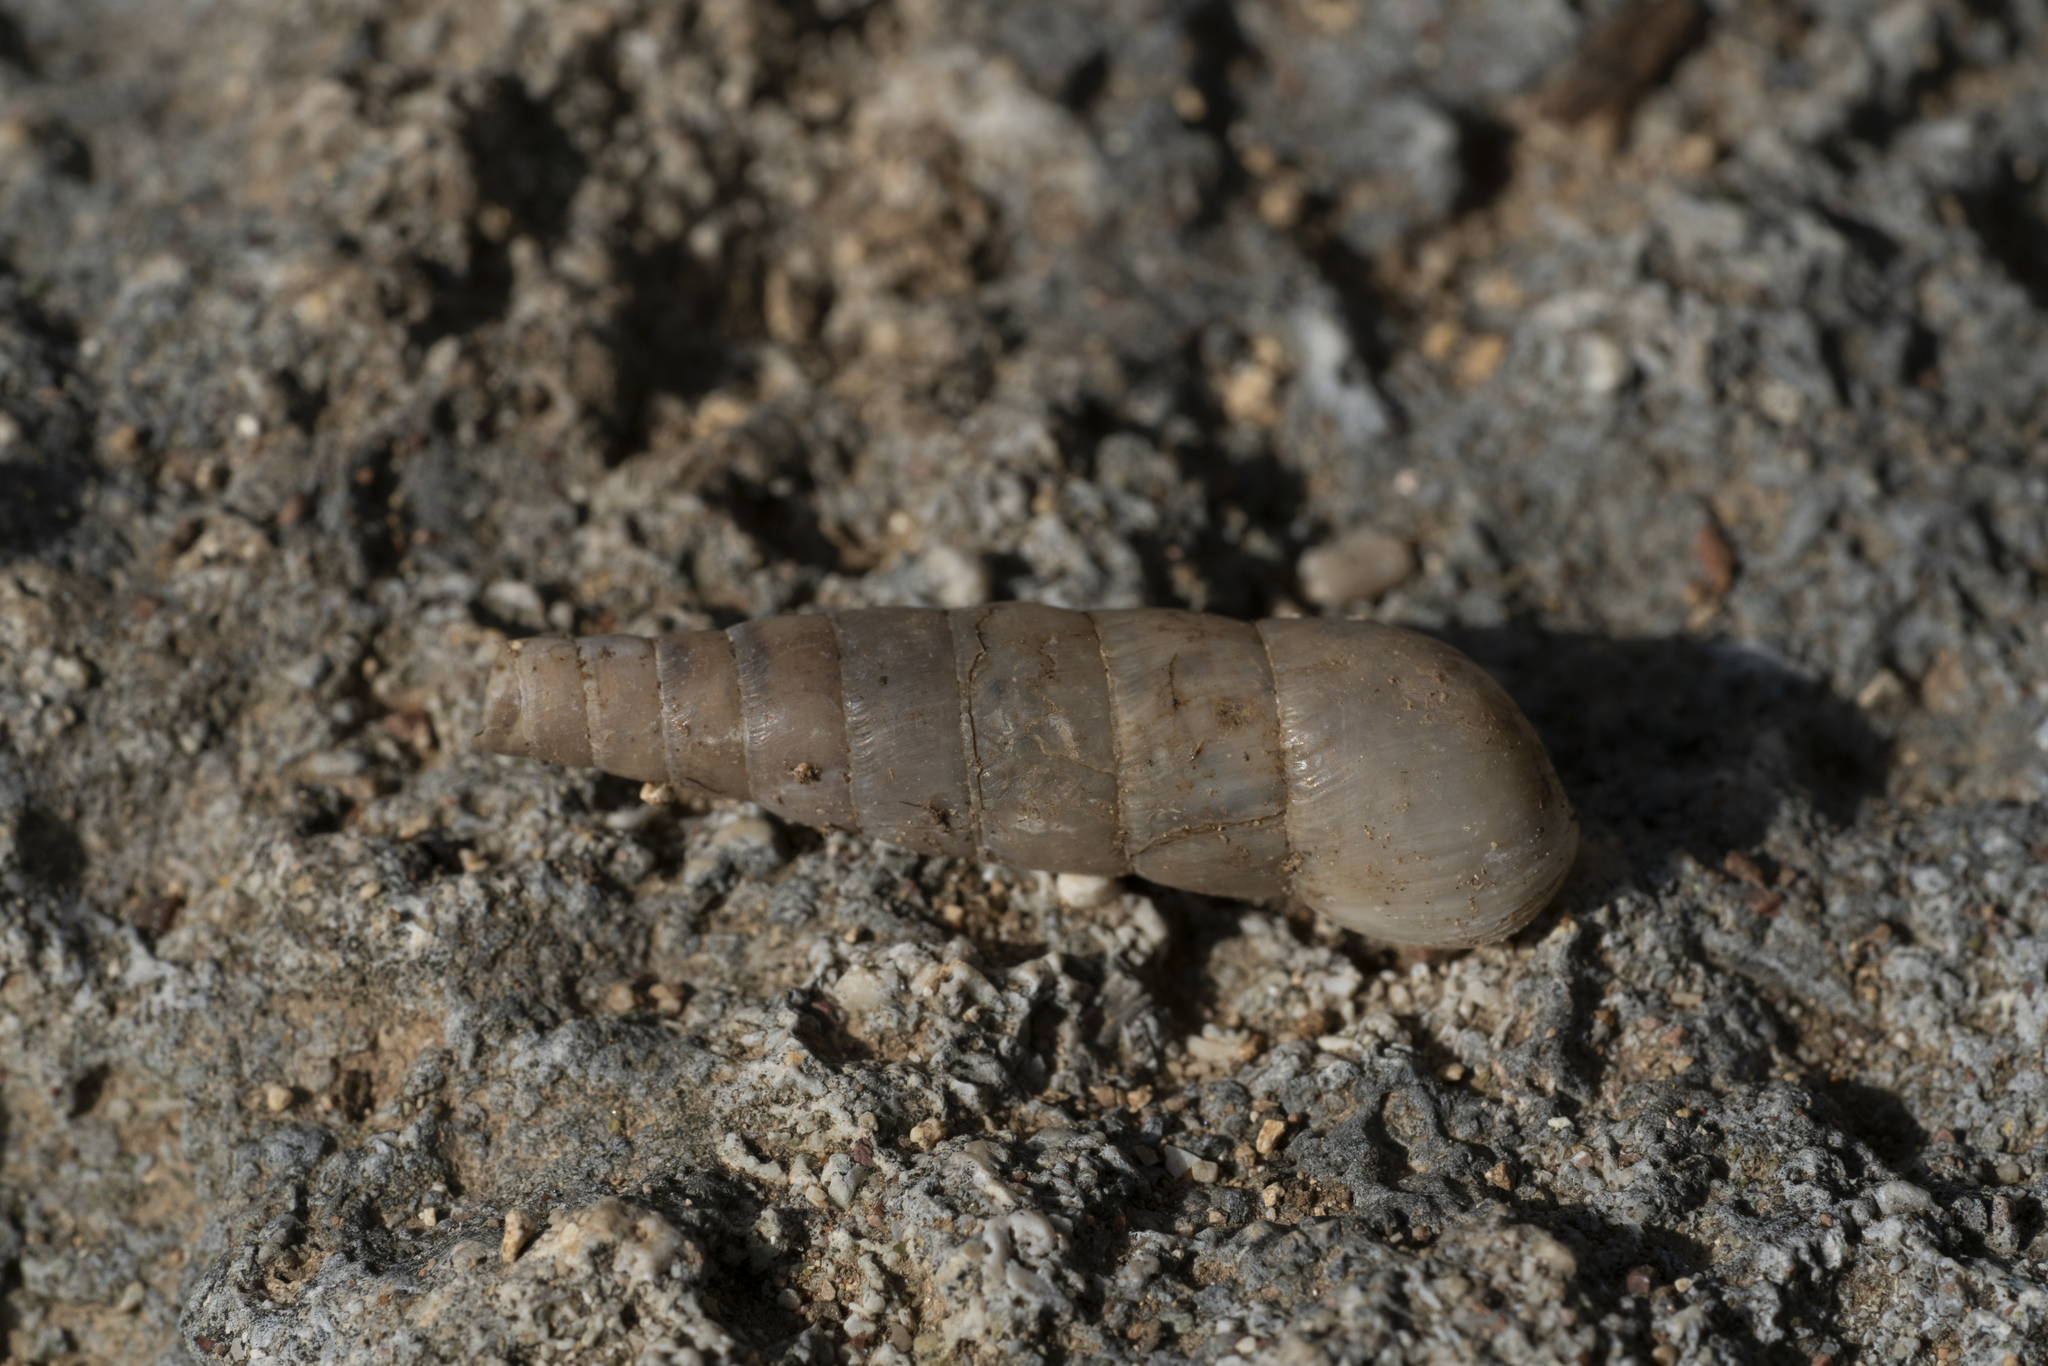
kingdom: Animalia
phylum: Mollusca
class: Gastropoda
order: Stylommatophora
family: Achatinidae
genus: Rumina
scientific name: Rumina saharica
